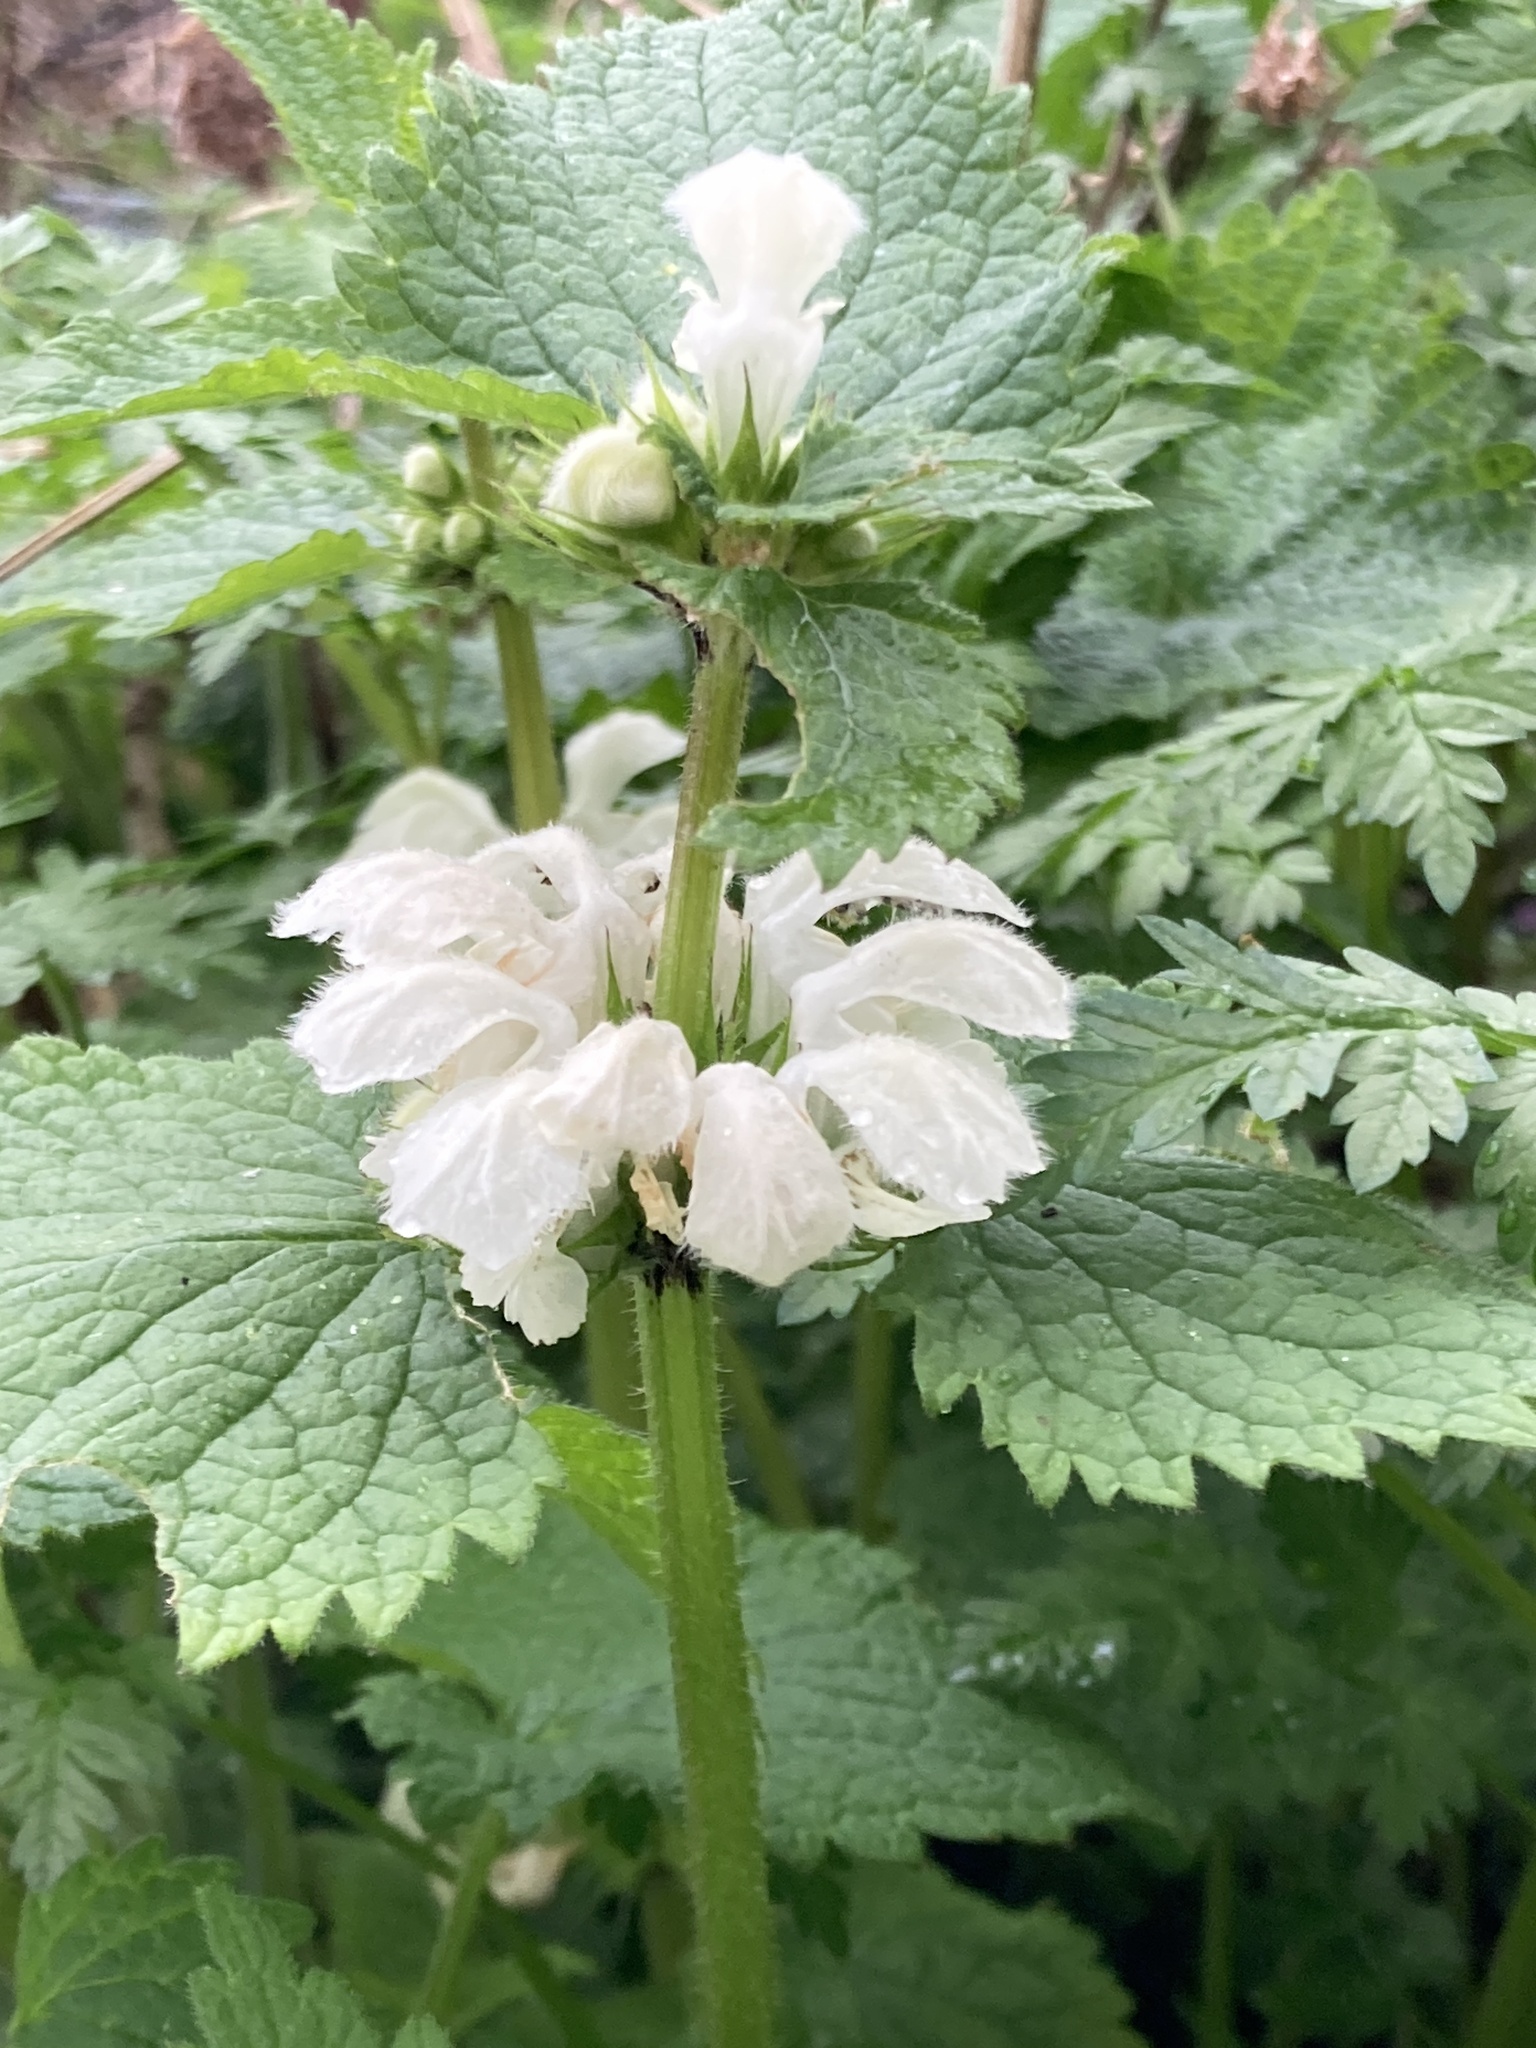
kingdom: Plantae
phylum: Tracheophyta
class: Magnoliopsida
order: Lamiales
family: Lamiaceae
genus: Lamium
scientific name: Lamium album
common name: White dead-nettle
